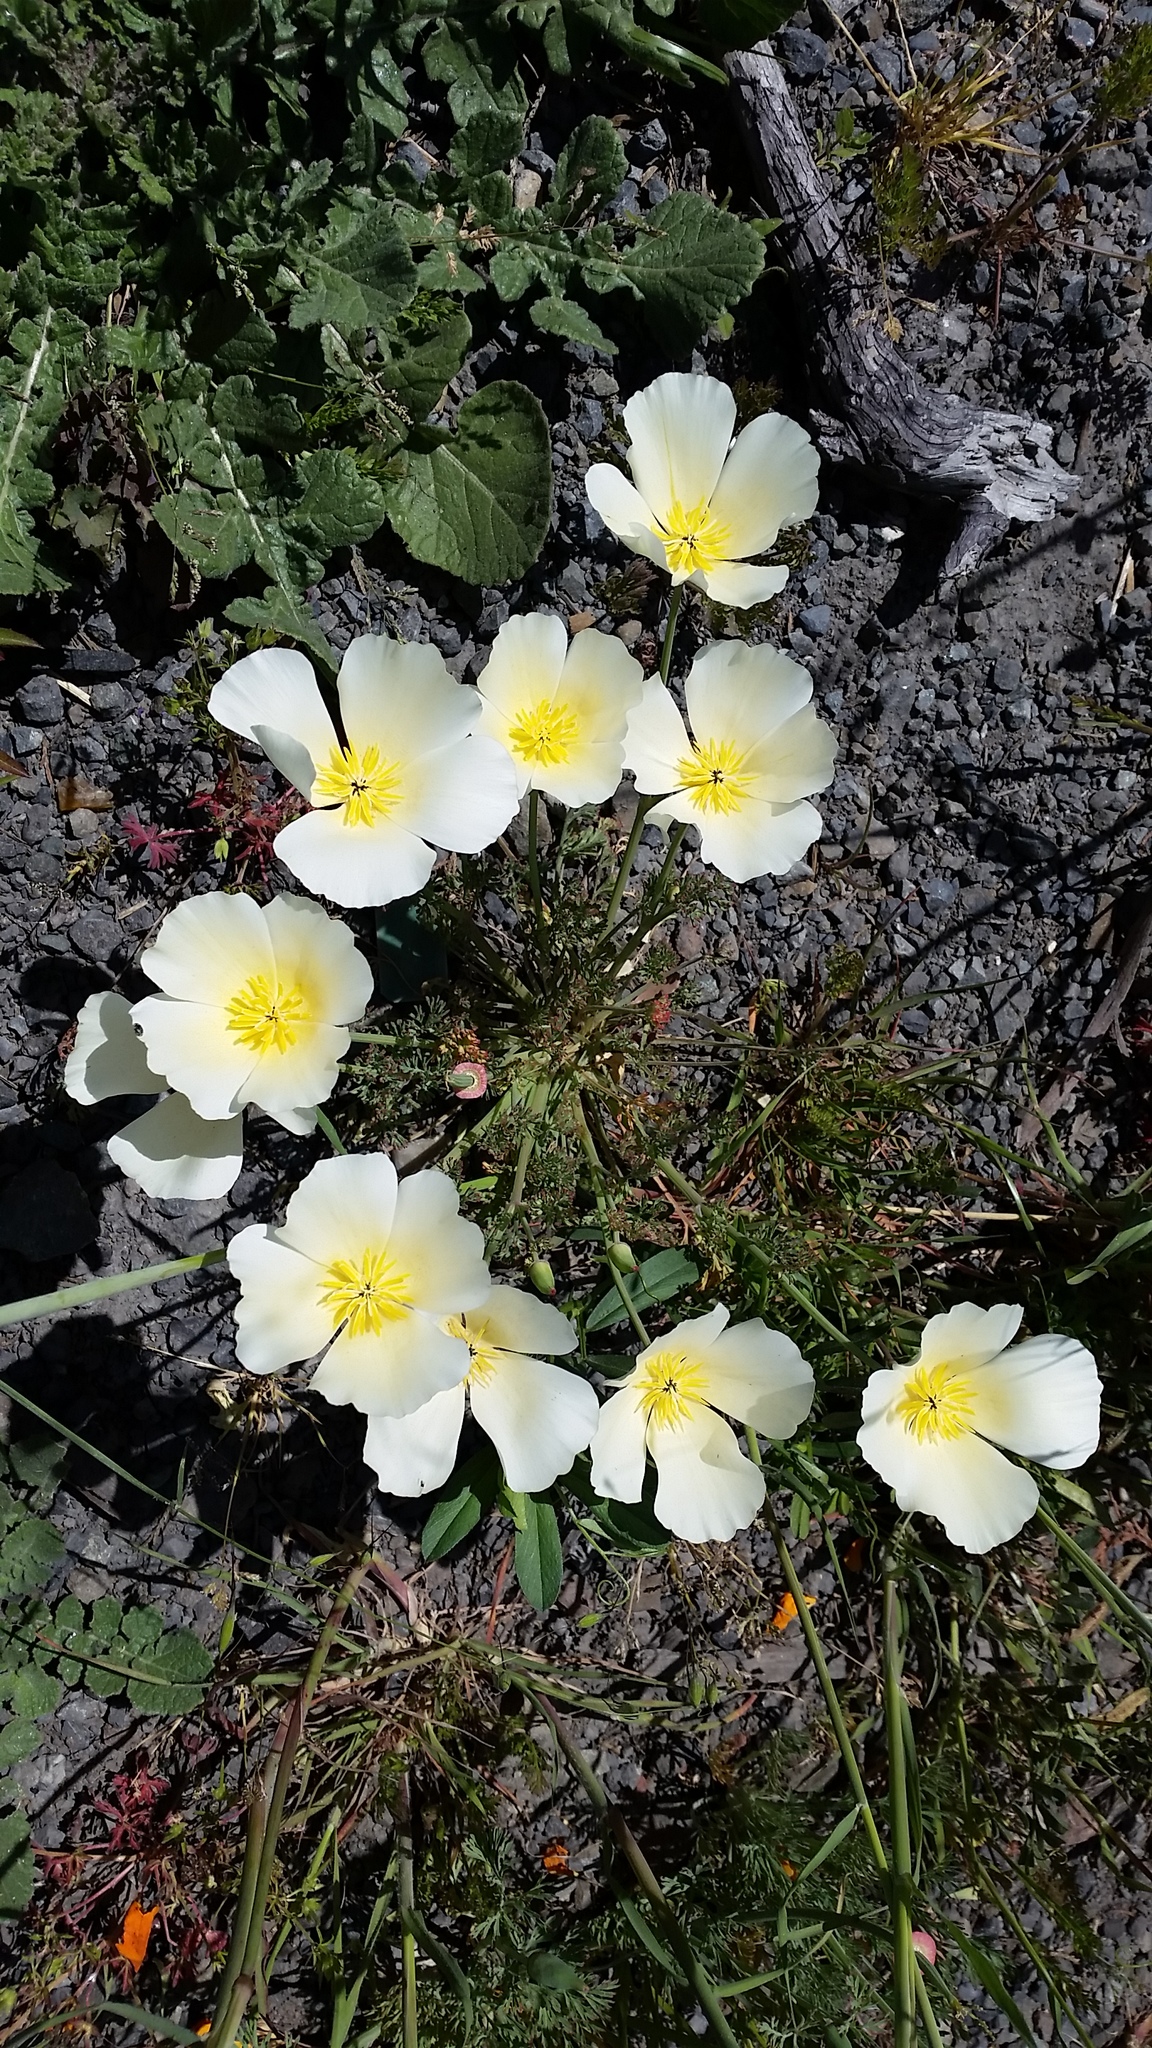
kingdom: Plantae
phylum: Tracheophyta
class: Magnoliopsida
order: Ranunculales
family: Papaveraceae
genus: Eschscholzia
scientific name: Eschscholzia californica
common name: California poppy
